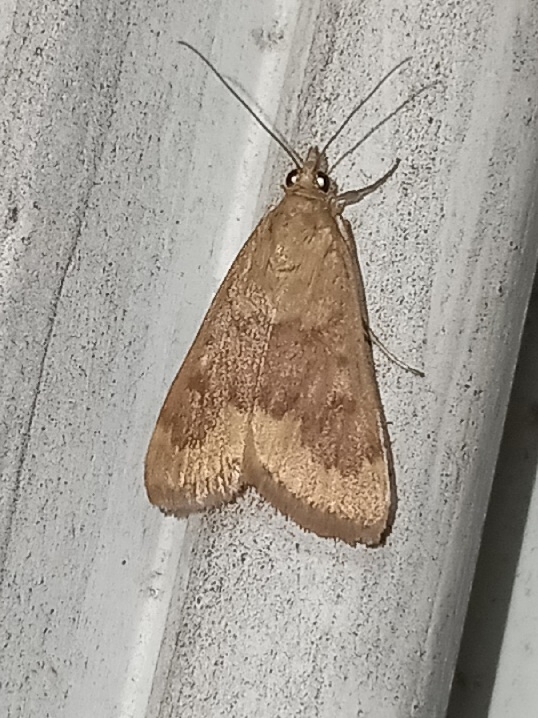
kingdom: Animalia
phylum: Arthropoda
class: Insecta
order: Lepidoptera
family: Crambidae
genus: Achyra
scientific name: Achyra rantalis
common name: Garden webworm
